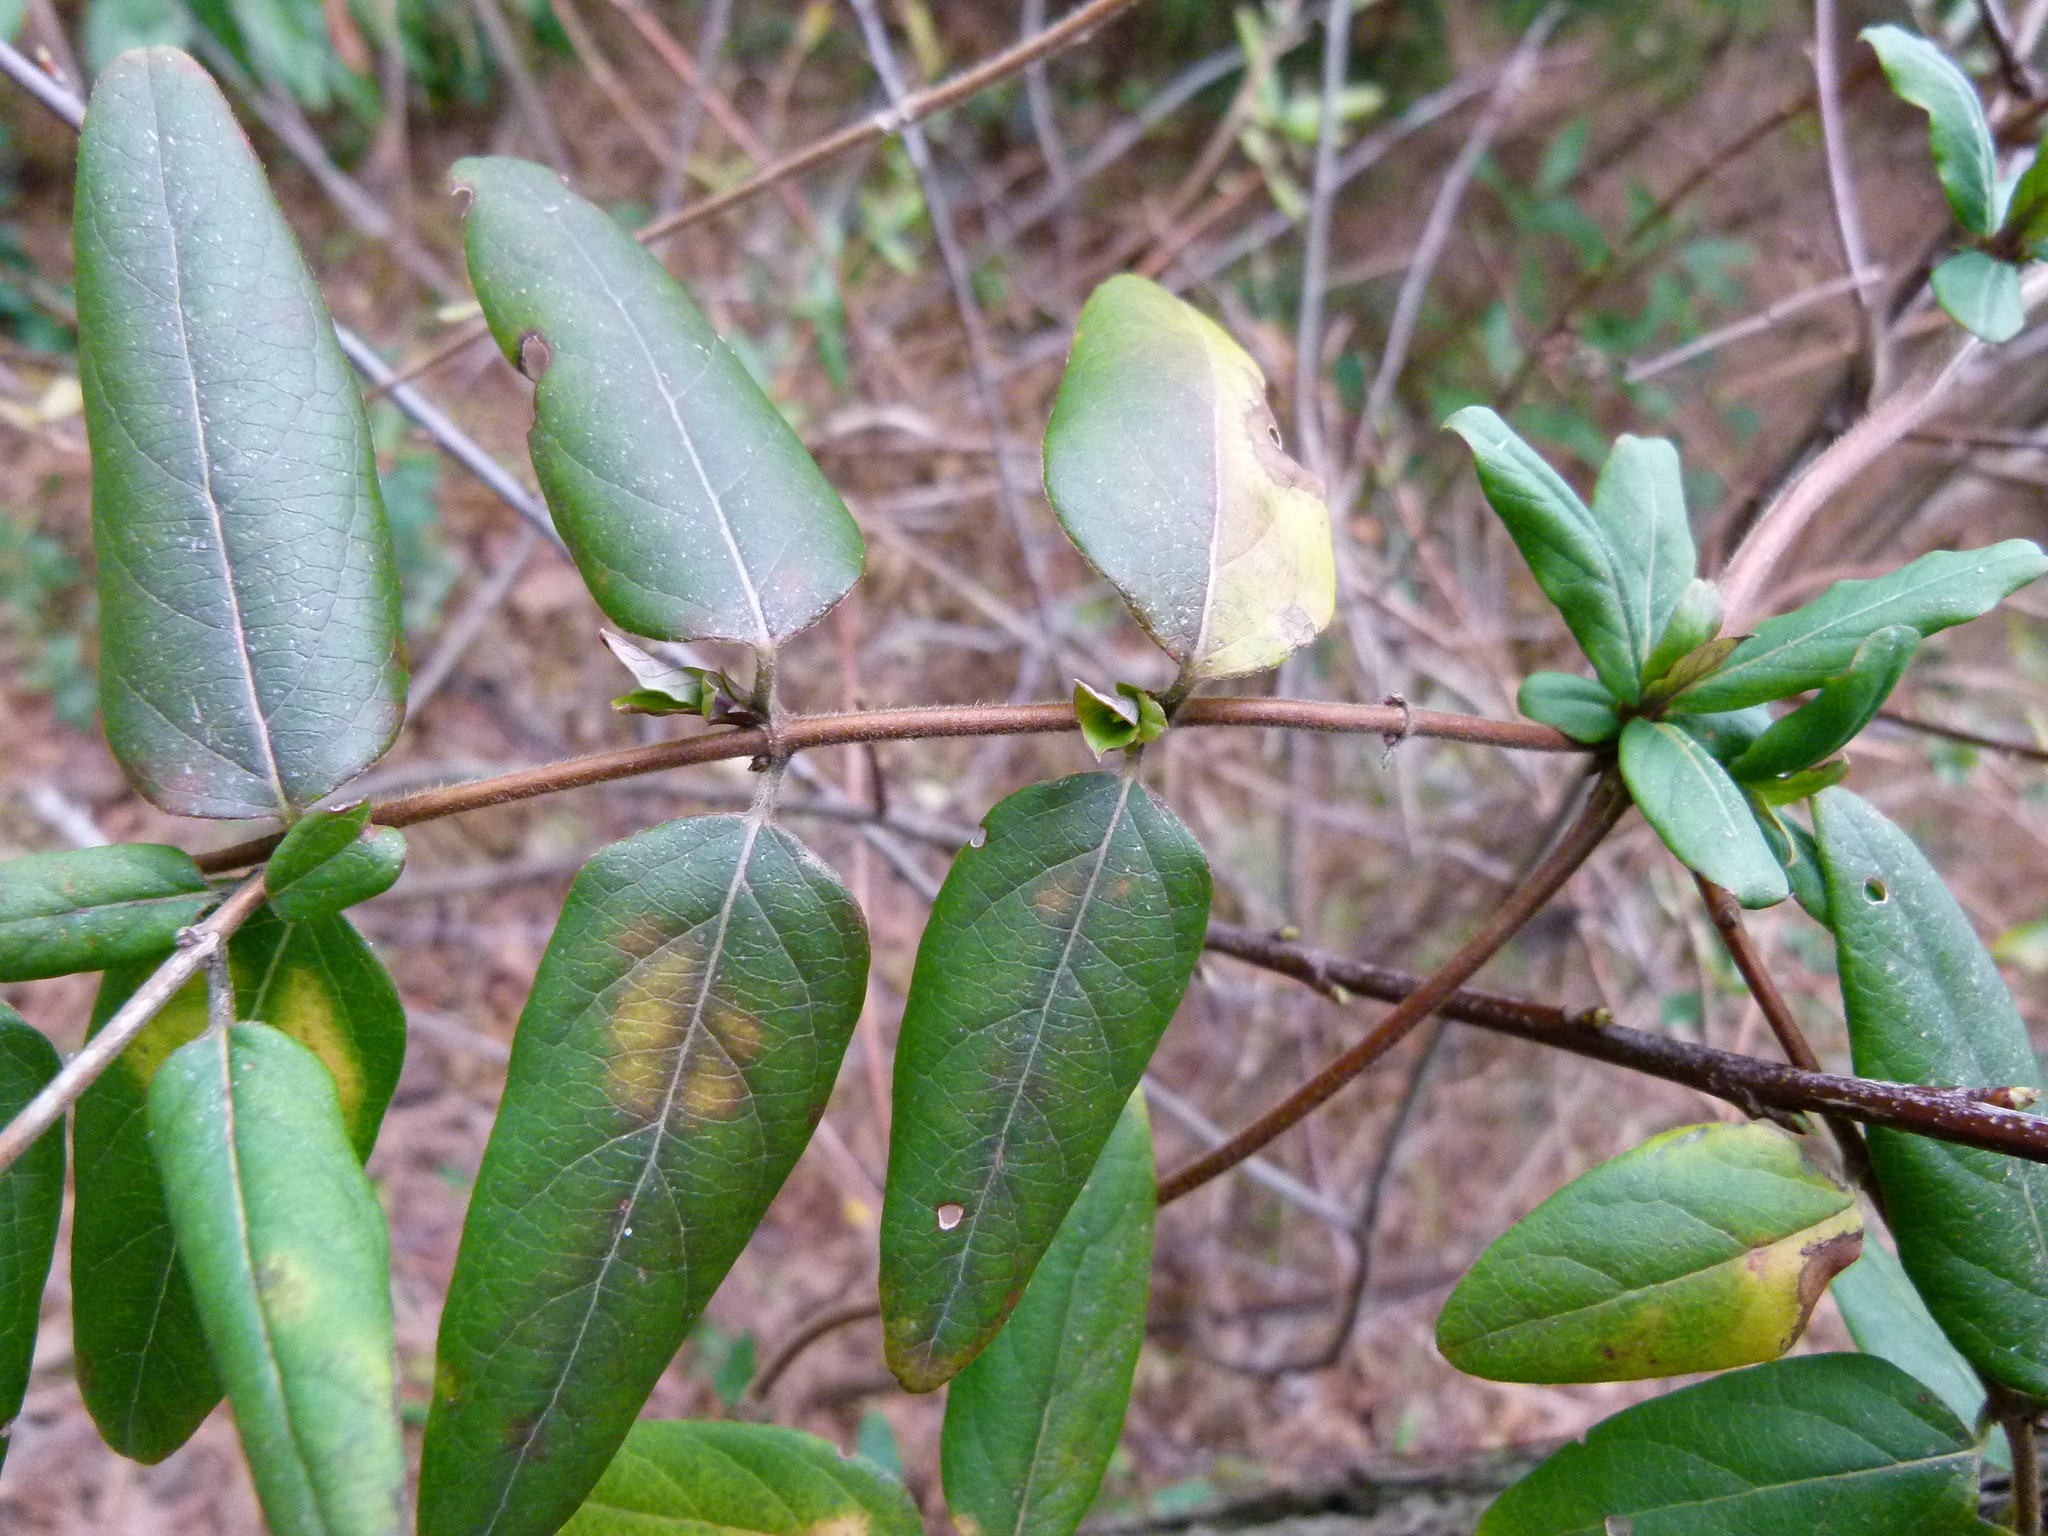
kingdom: Plantae
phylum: Tracheophyta
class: Magnoliopsida
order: Dipsacales
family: Caprifoliaceae
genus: Lonicera
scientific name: Lonicera japonica
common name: Japanese honeysuckle
